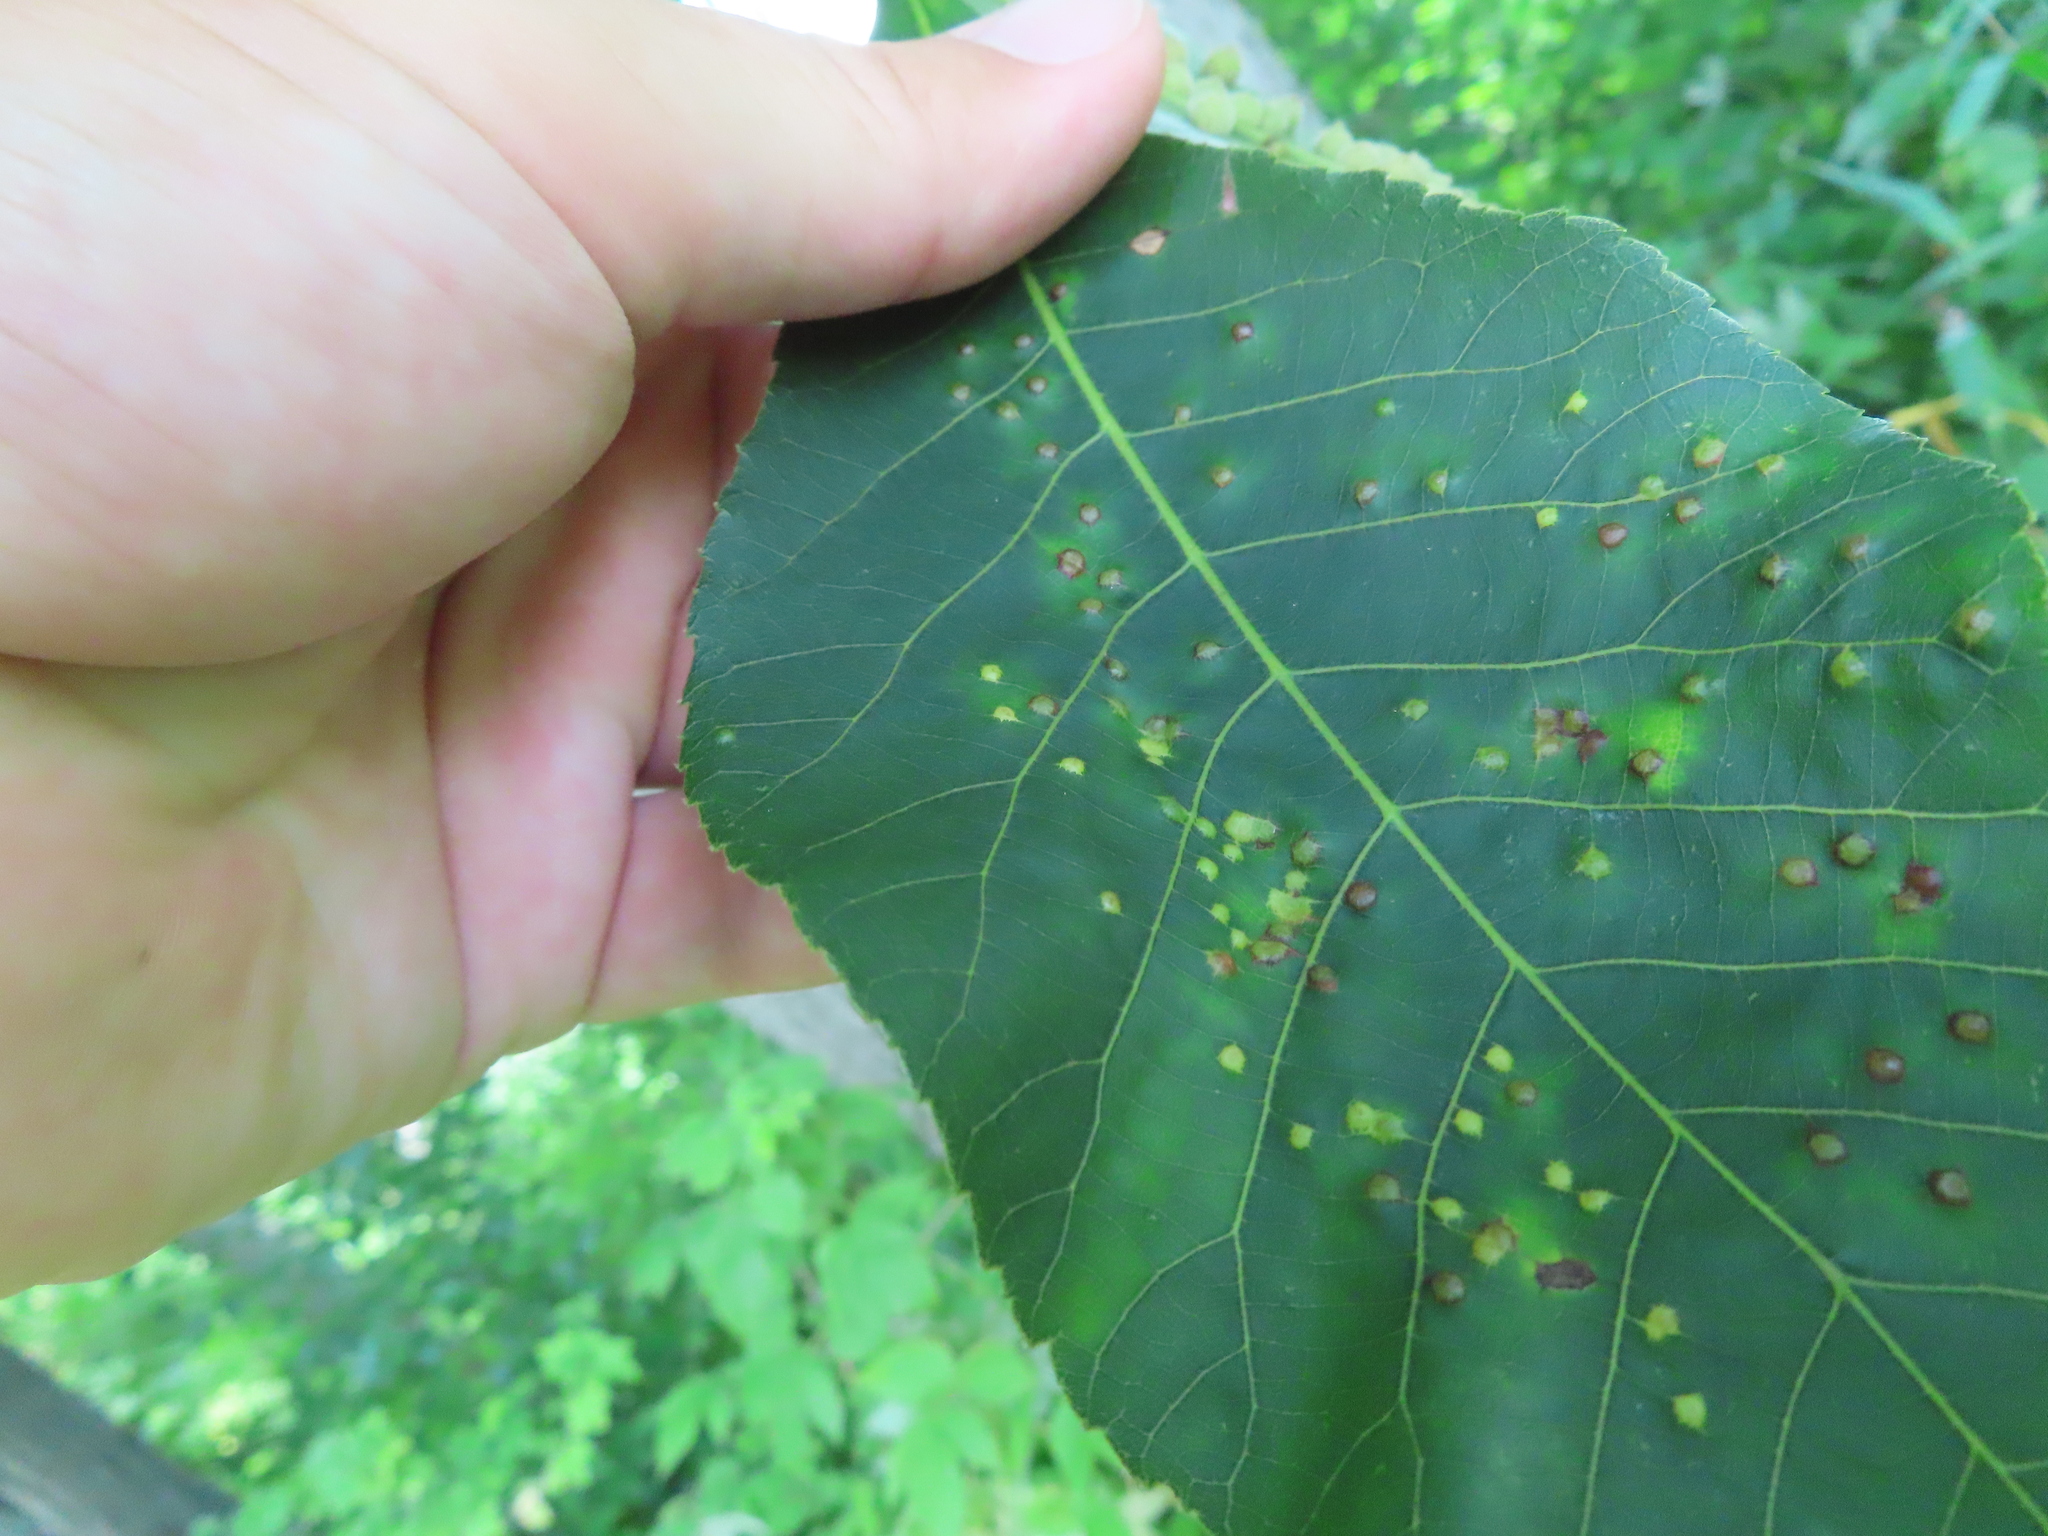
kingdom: Animalia
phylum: Arthropoda
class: Insecta
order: Diptera
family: Cecidomyiidae
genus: Caryomyia
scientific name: Caryomyia stellata
